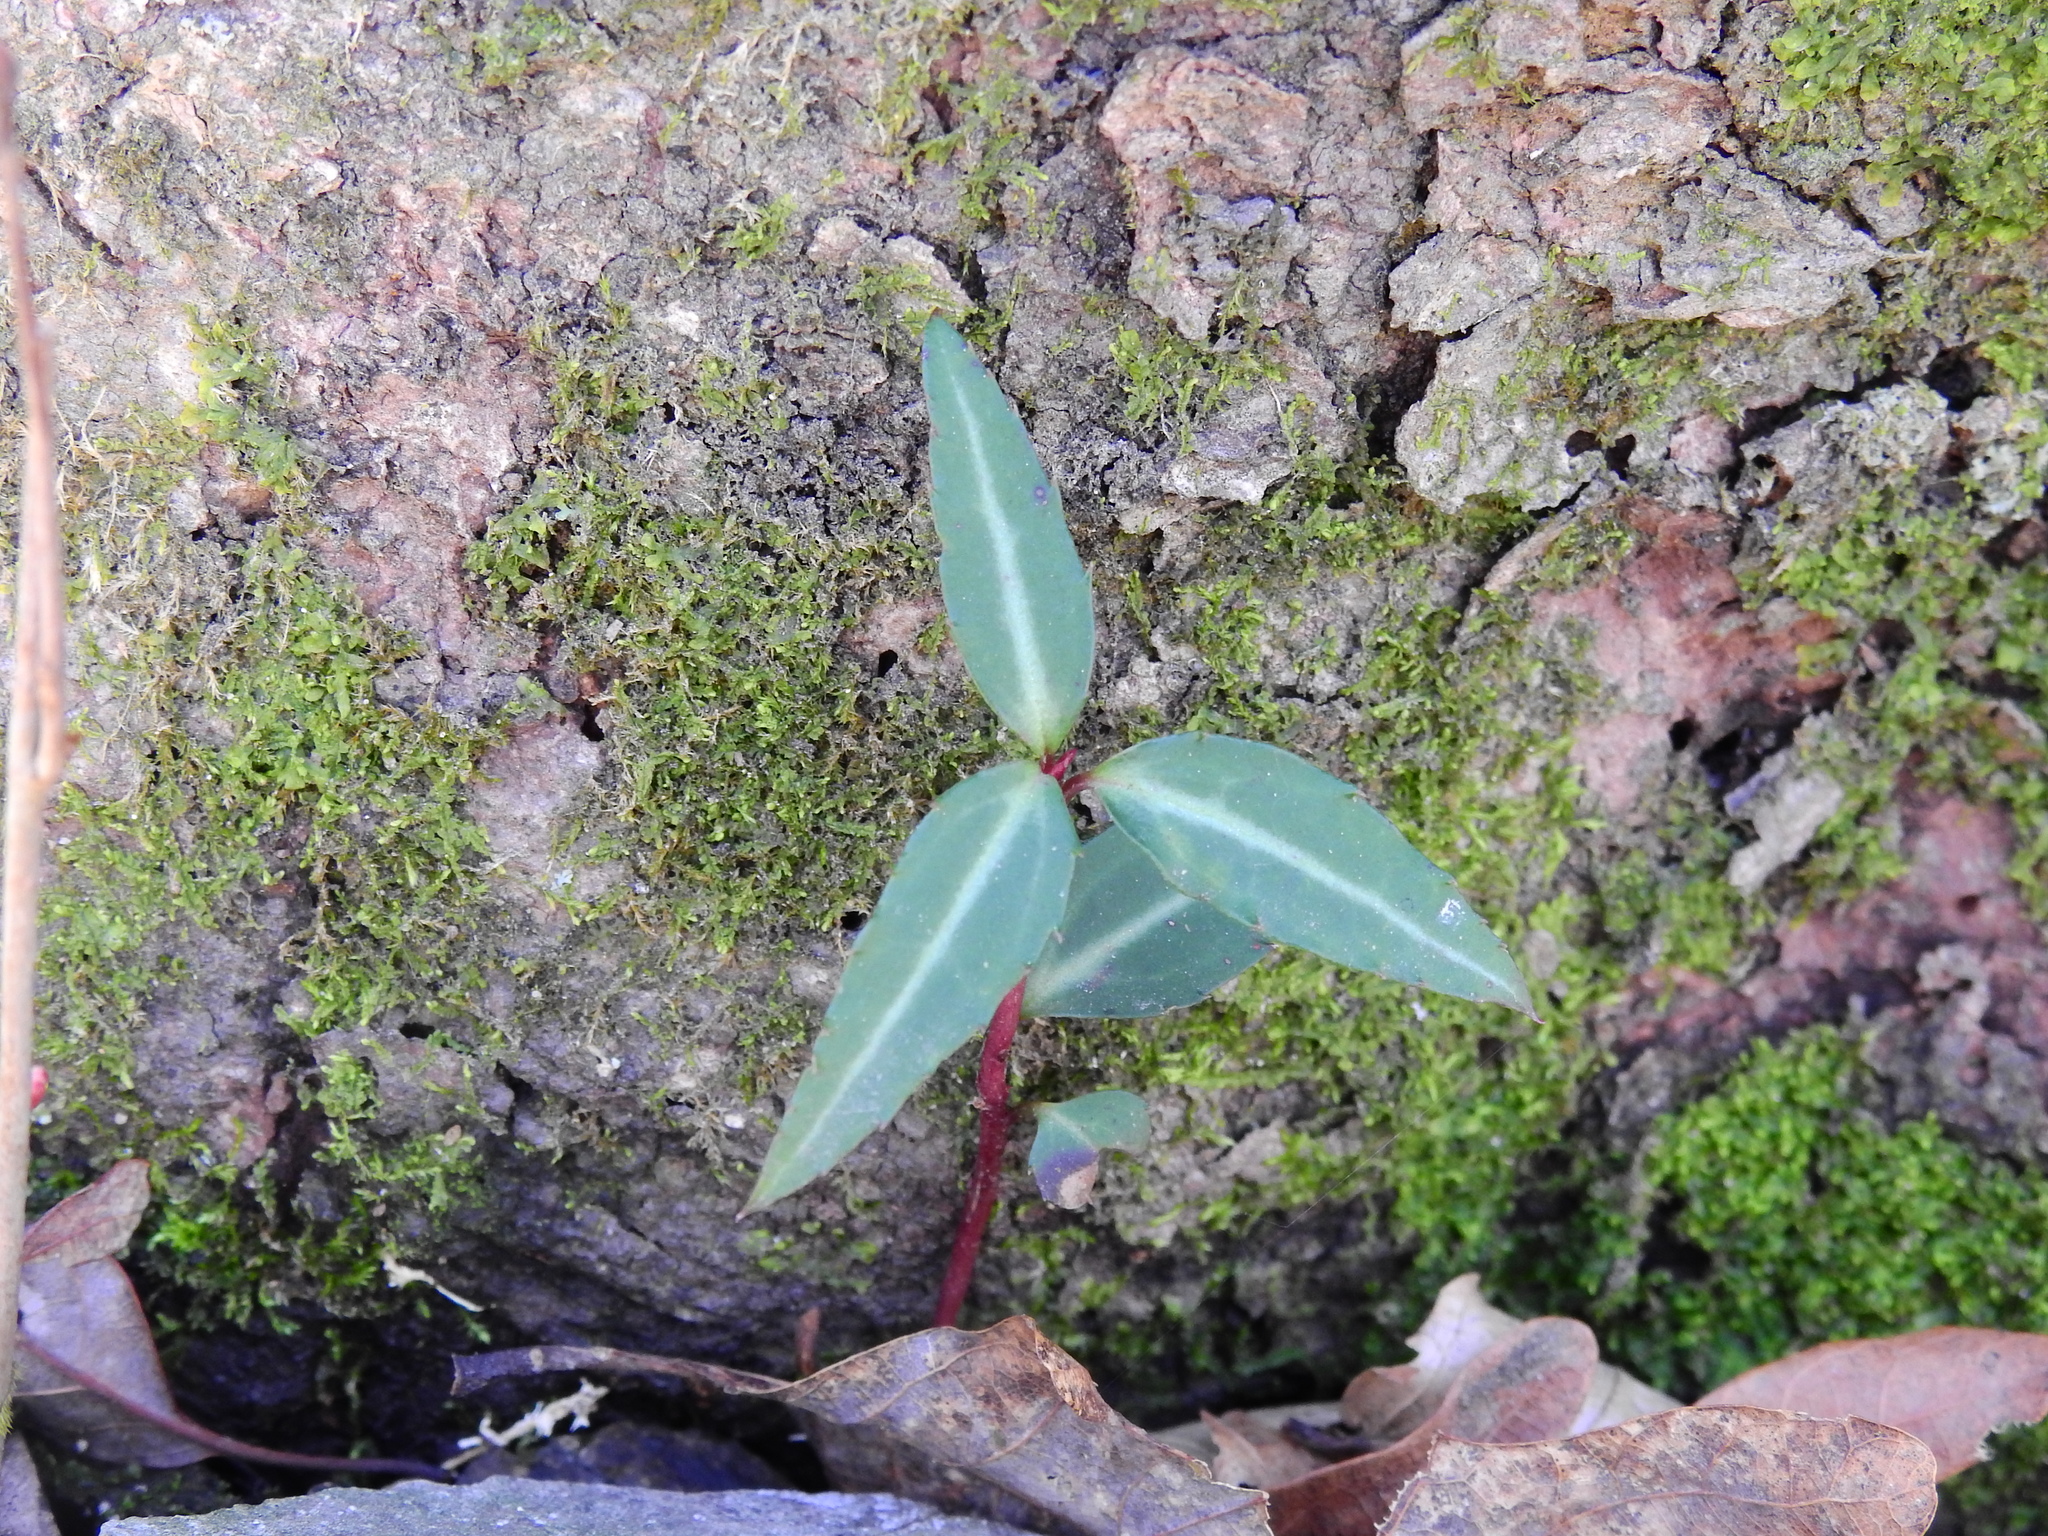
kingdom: Plantae
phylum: Tracheophyta
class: Magnoliopsida
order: Ericales
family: Ericaceae
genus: Chimaphila
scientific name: Chimaphila maculata
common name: Spotted pipsissewa
